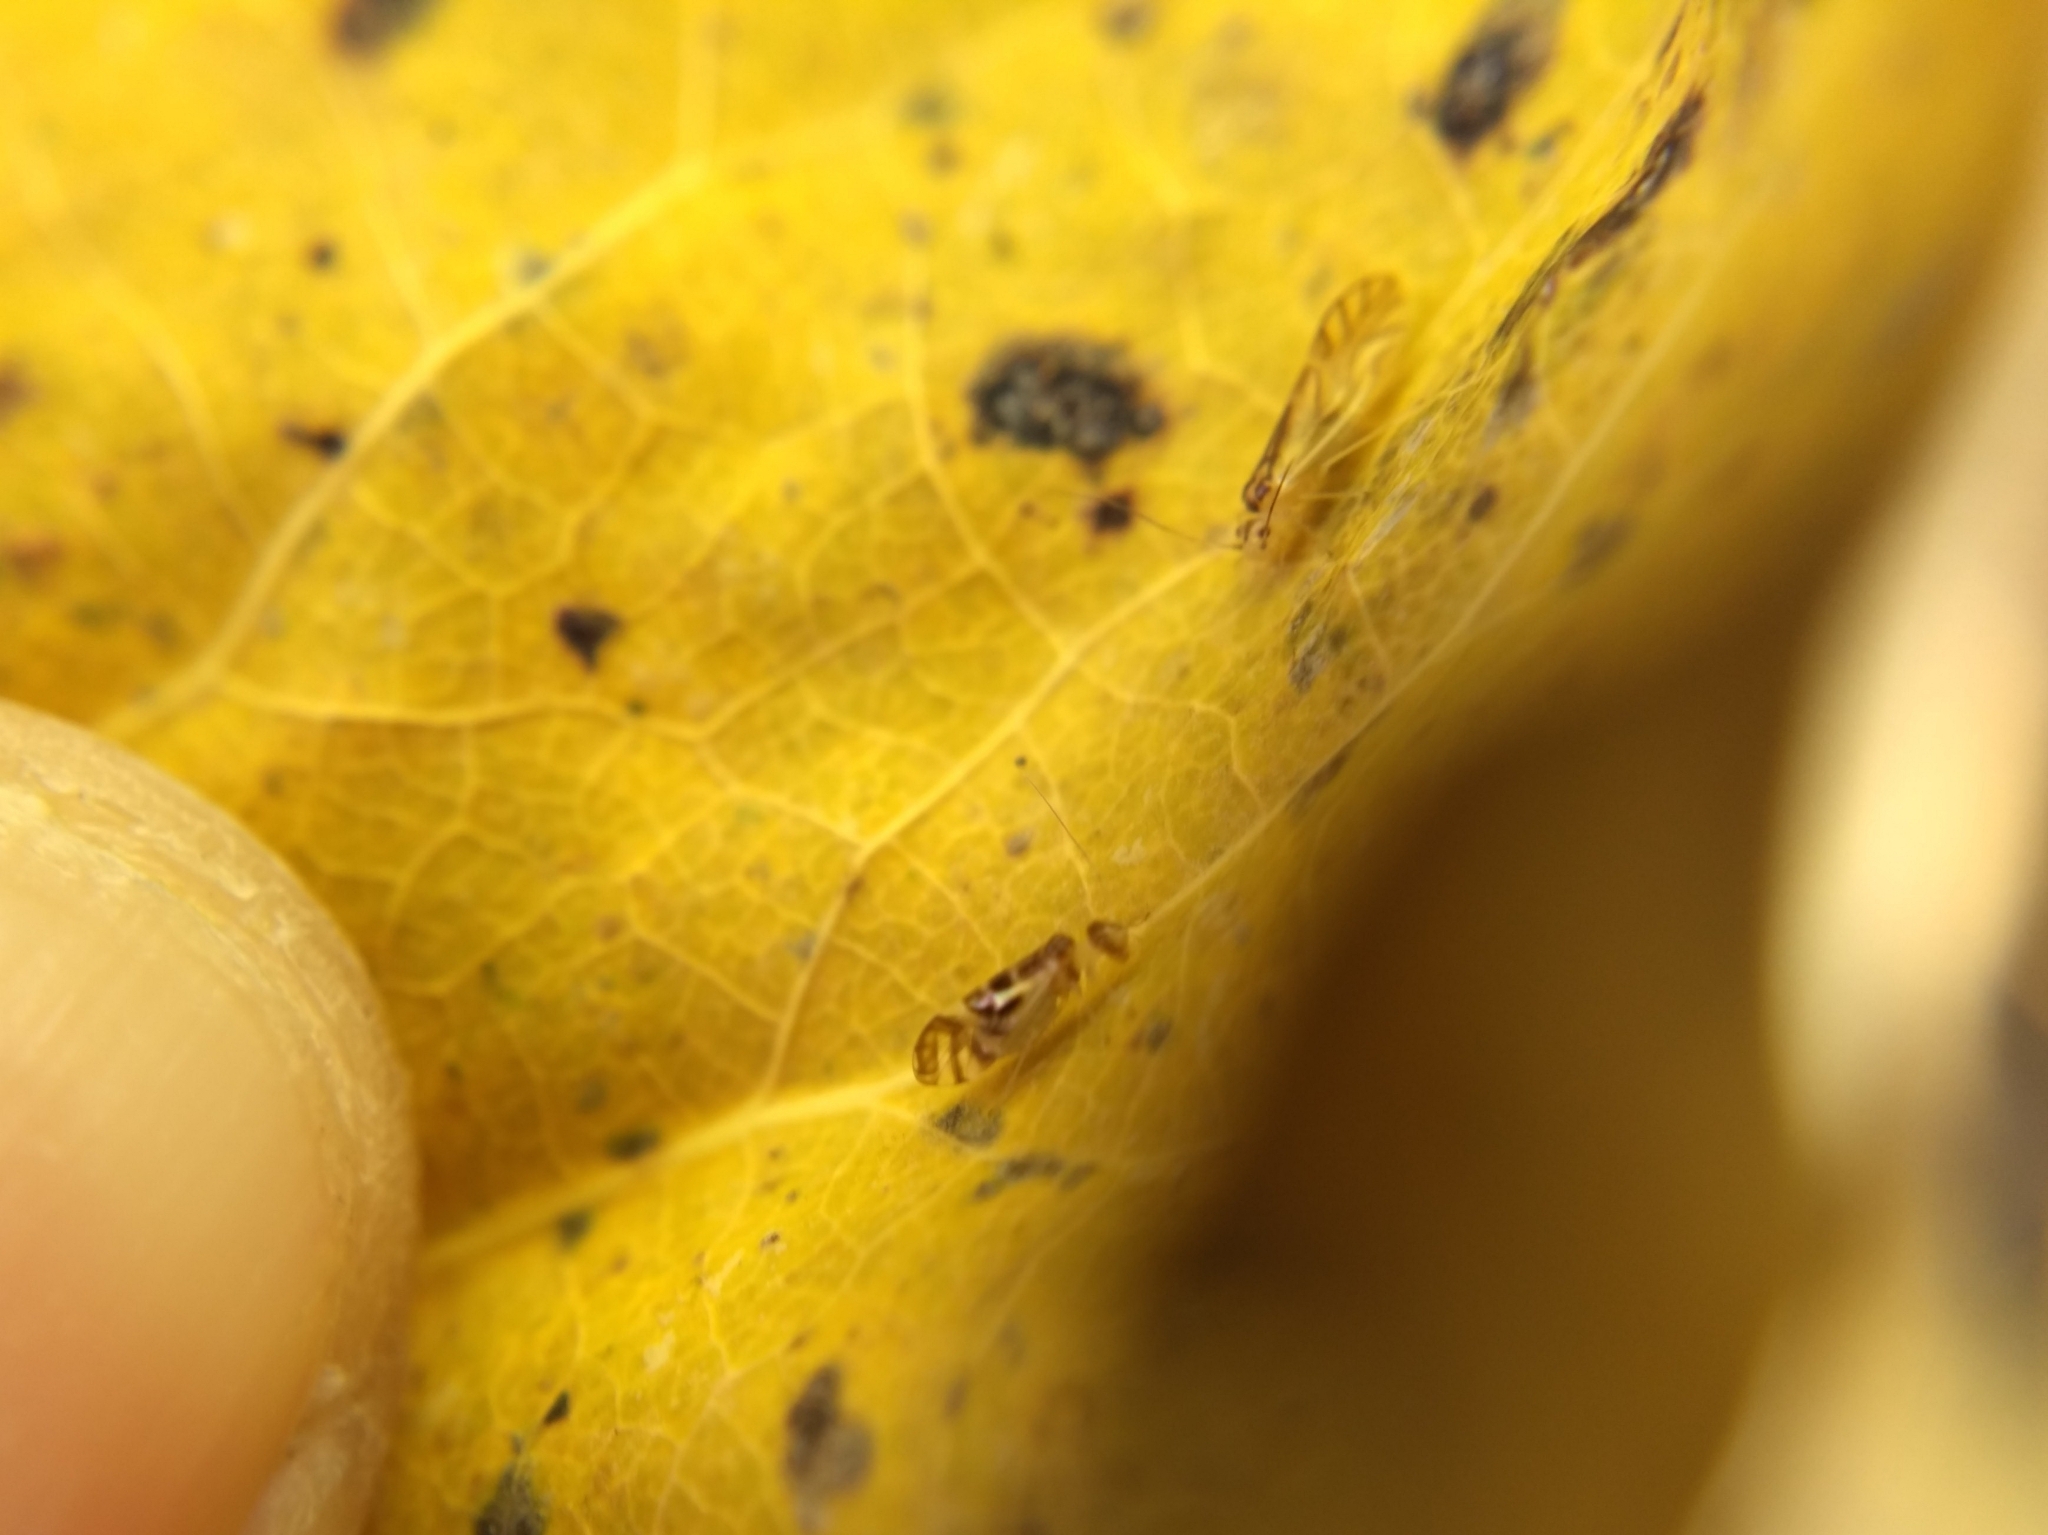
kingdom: Animalia
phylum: Arthropoda
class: Insecta
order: Psocodea
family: Stenopsocidae
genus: Graphopsocus
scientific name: Graphopsocus cruciatus
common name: Lizard bark louse
